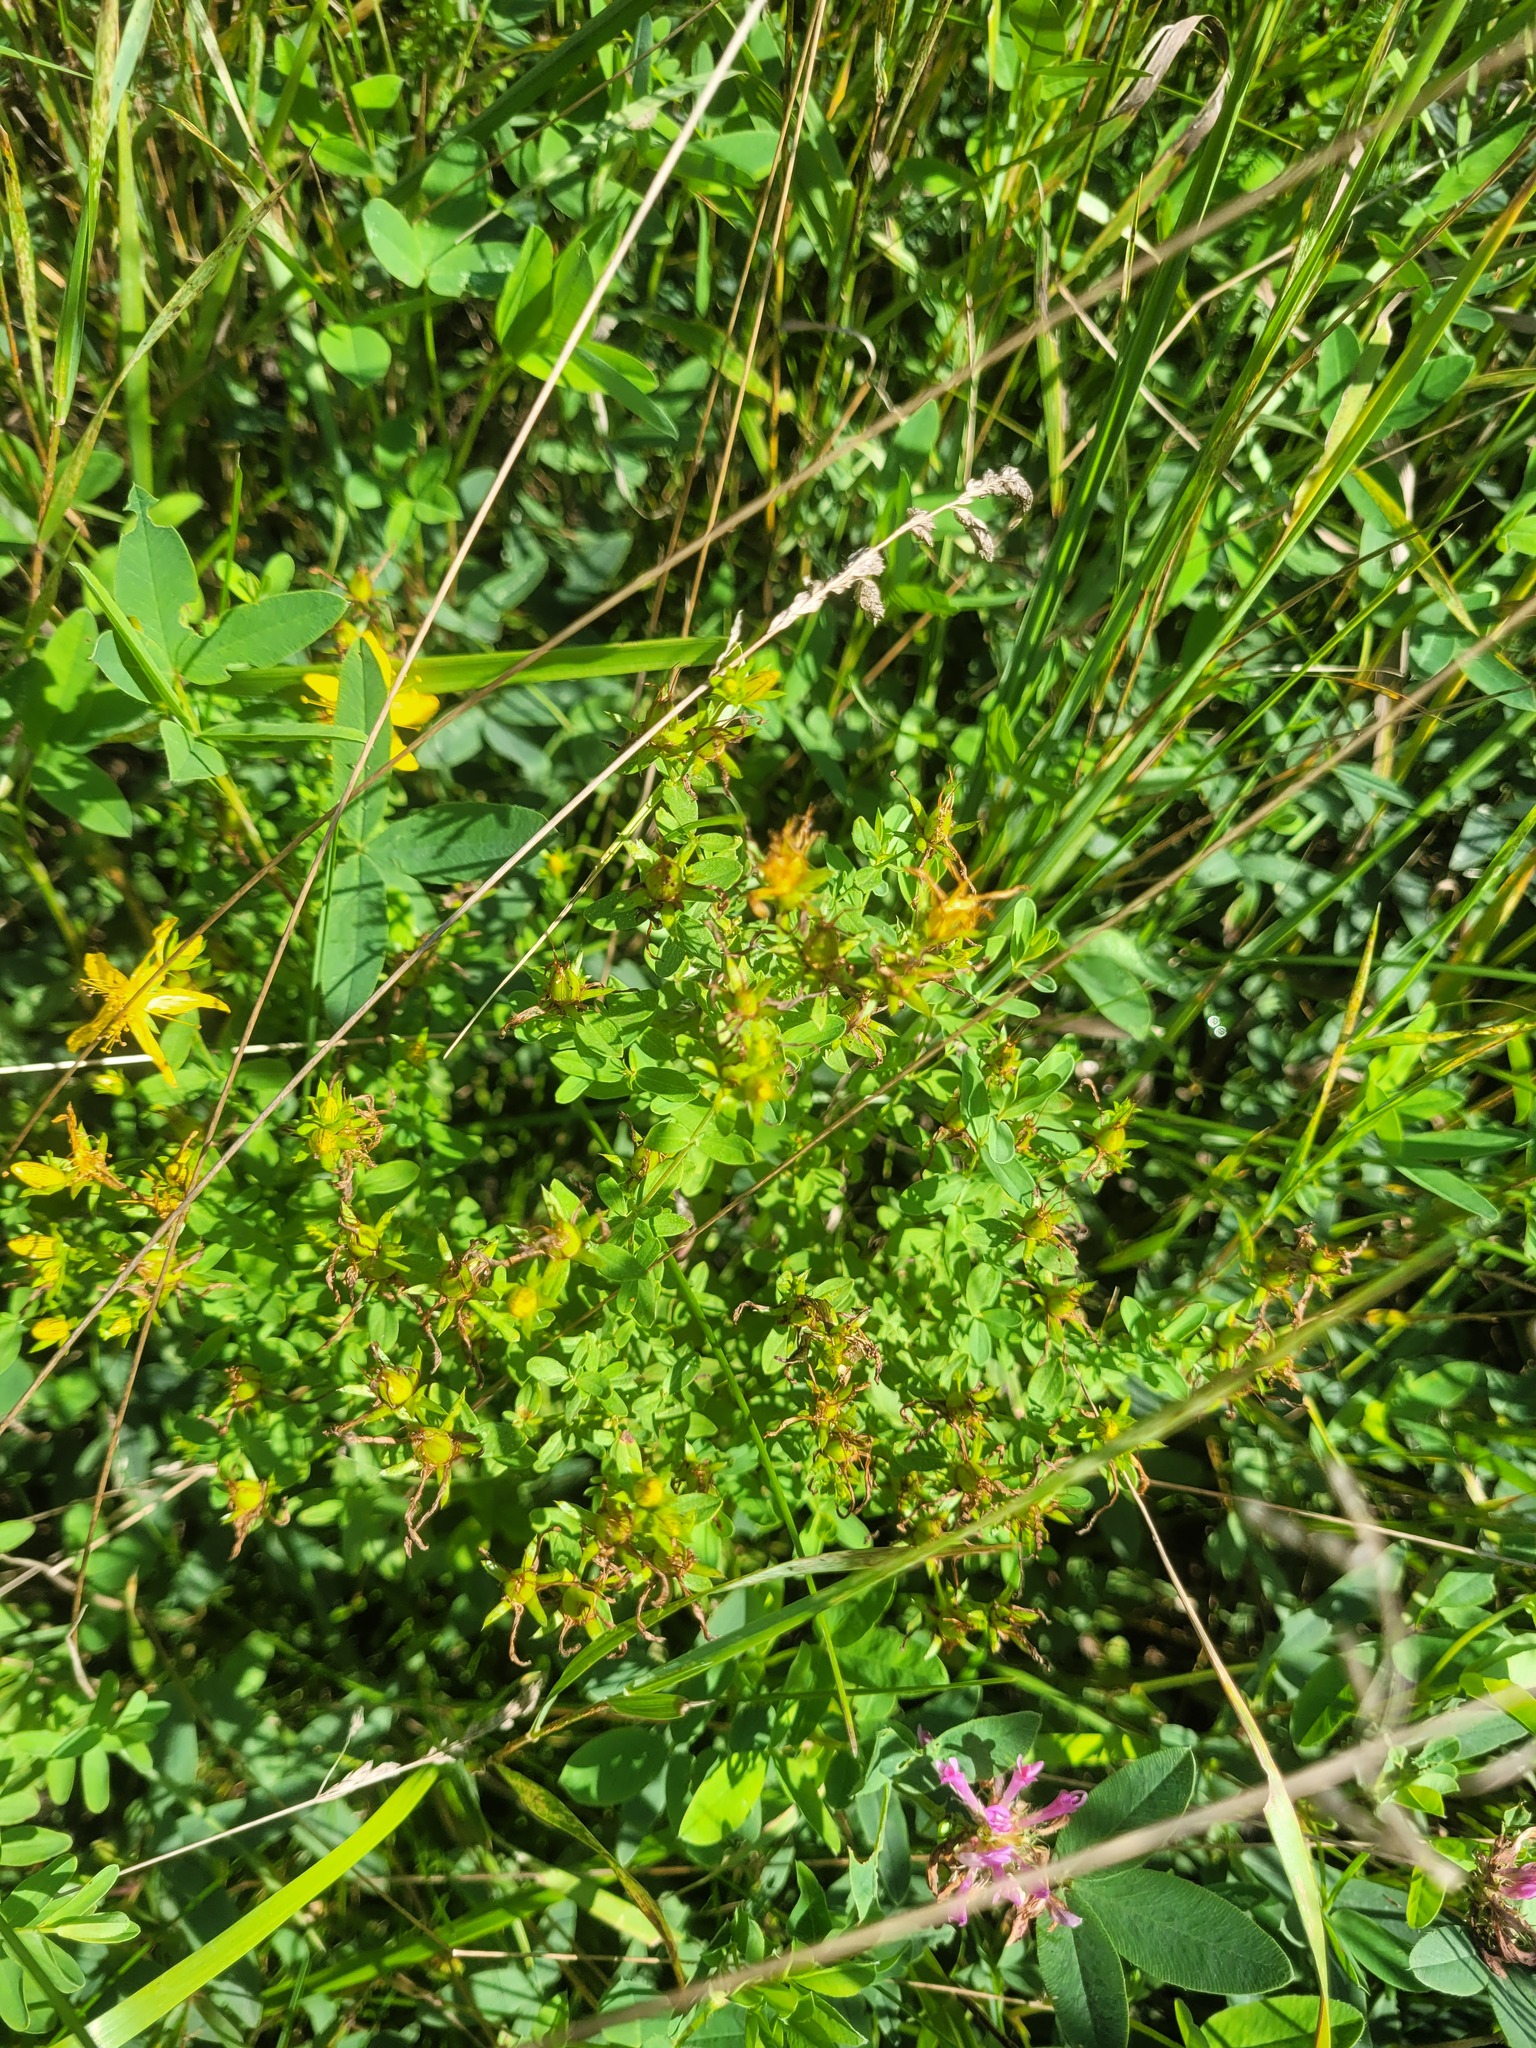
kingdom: Plantae
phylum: Tracheophyta
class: Magnoliopsida
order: Malpighiales
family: Hypericaceae
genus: Hypericum
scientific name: Hypericum perforatum
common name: Common st. johnswort
